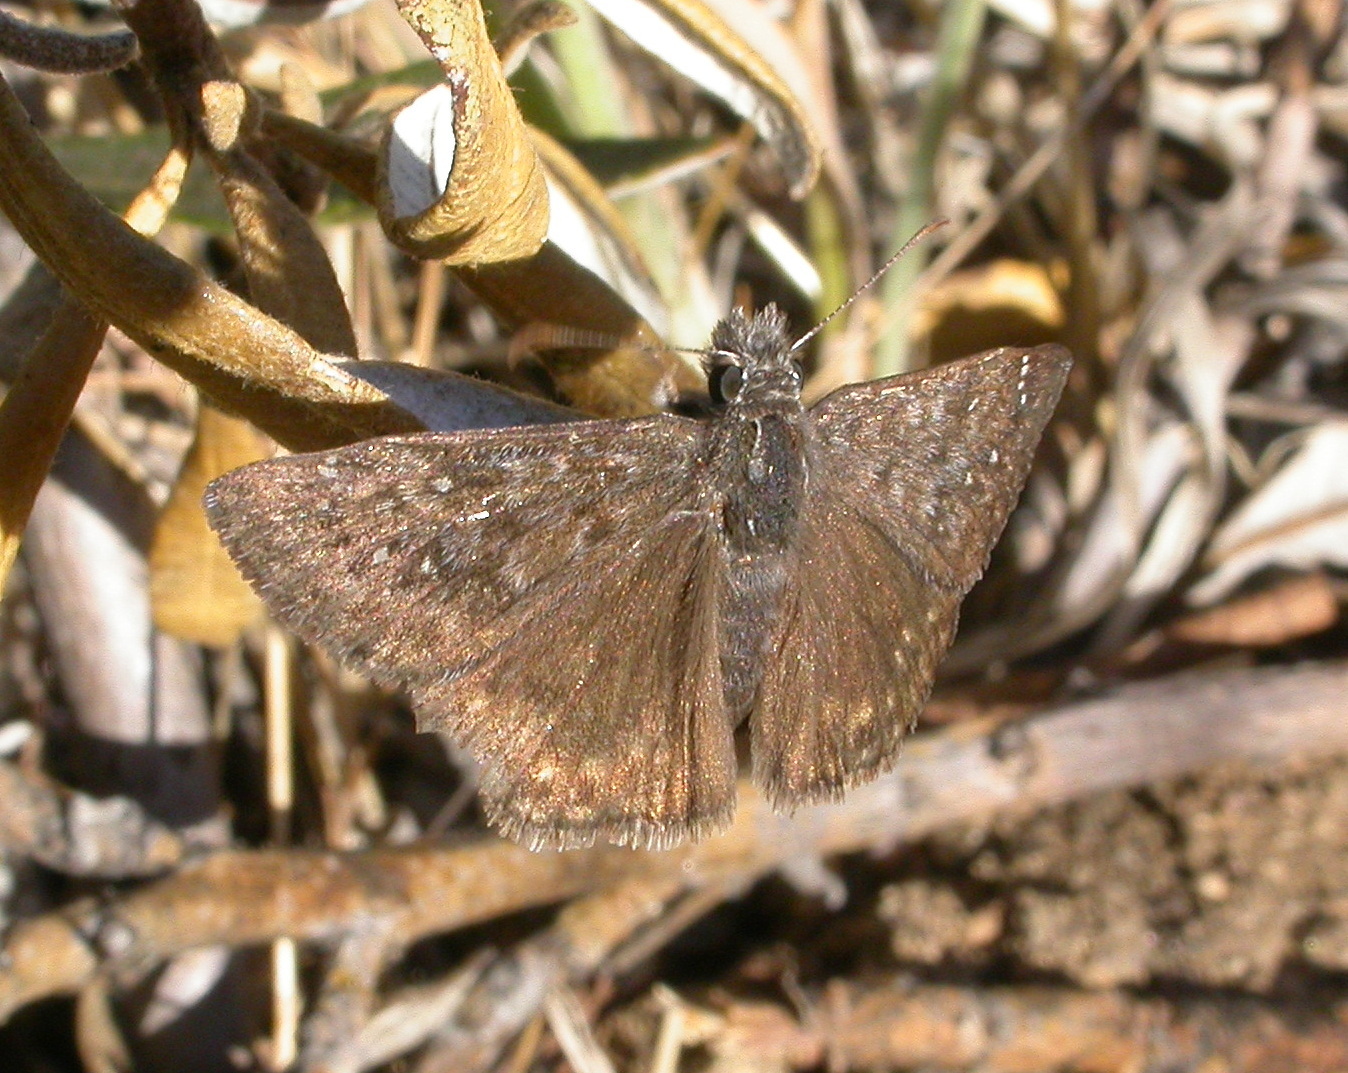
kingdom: Animalia
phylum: Arthropoda
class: Insecta
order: Lepidoptera
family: Hesperiidae
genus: Erynnis
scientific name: Erynnis propertius
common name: Propertius duskywing
